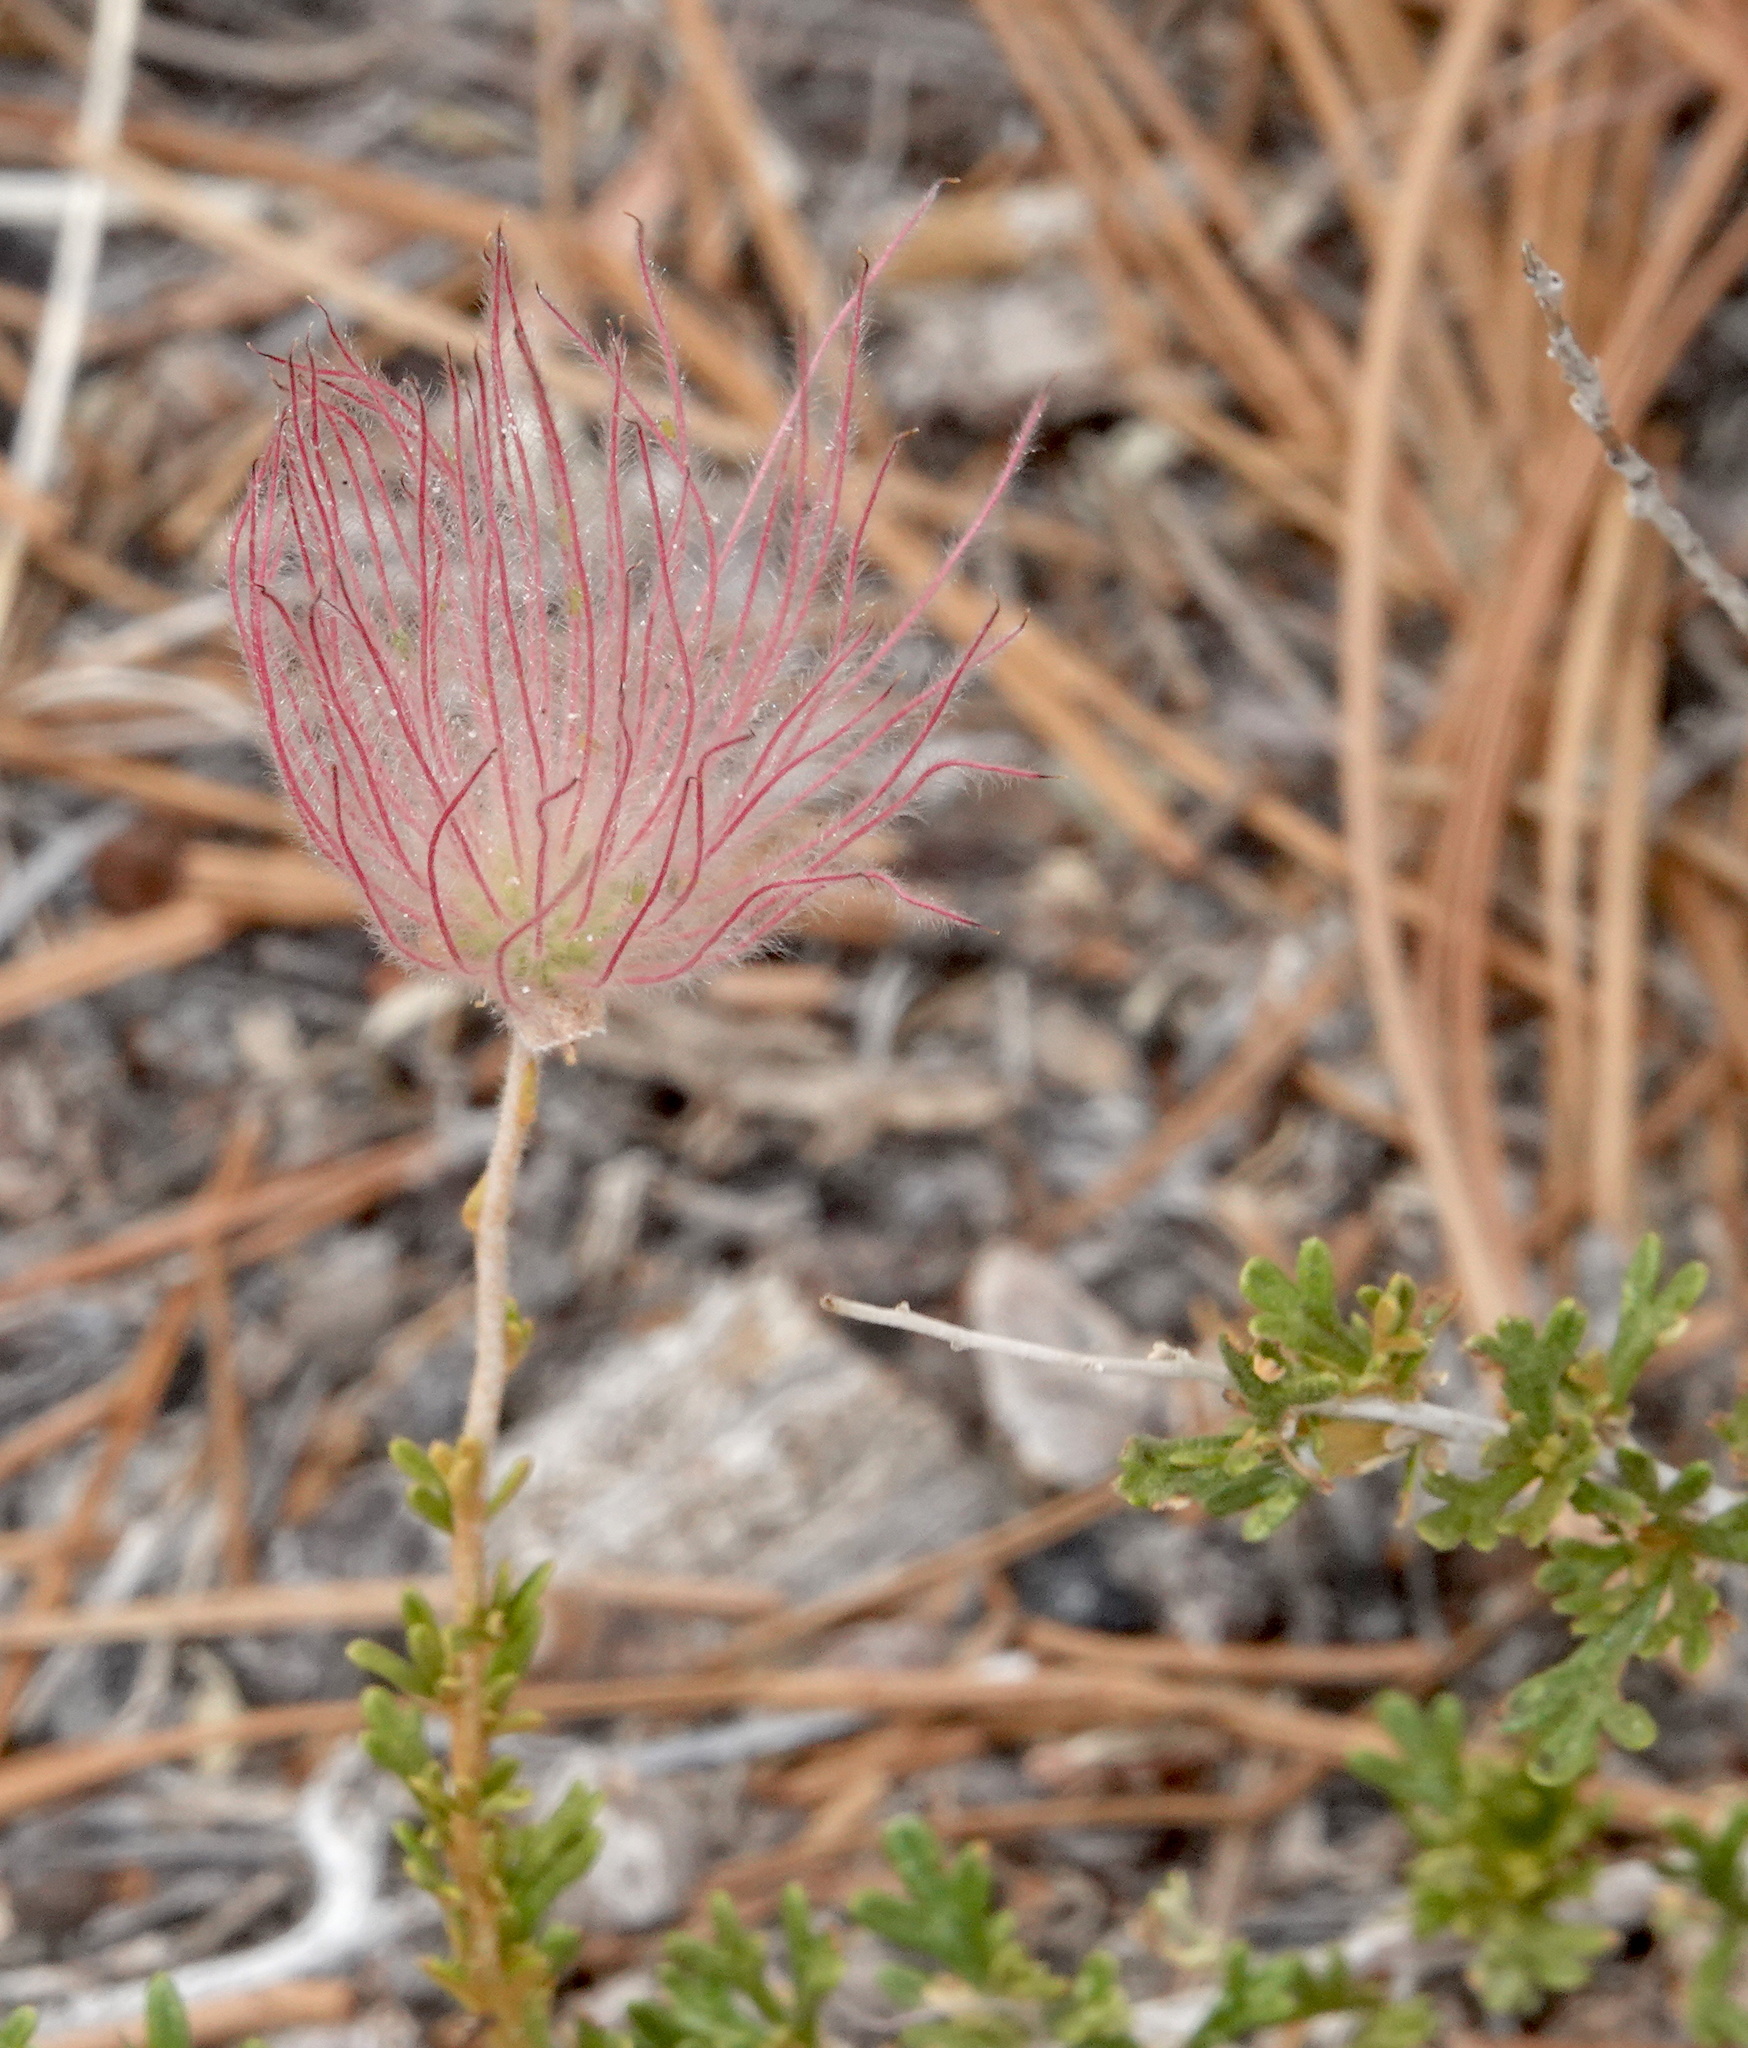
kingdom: Plantae
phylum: Tracheophyta
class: Magnoliopsida
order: Rosales
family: Rosaceae
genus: Fallugia
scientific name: Fallugia paradoxa
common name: Apache-plume
